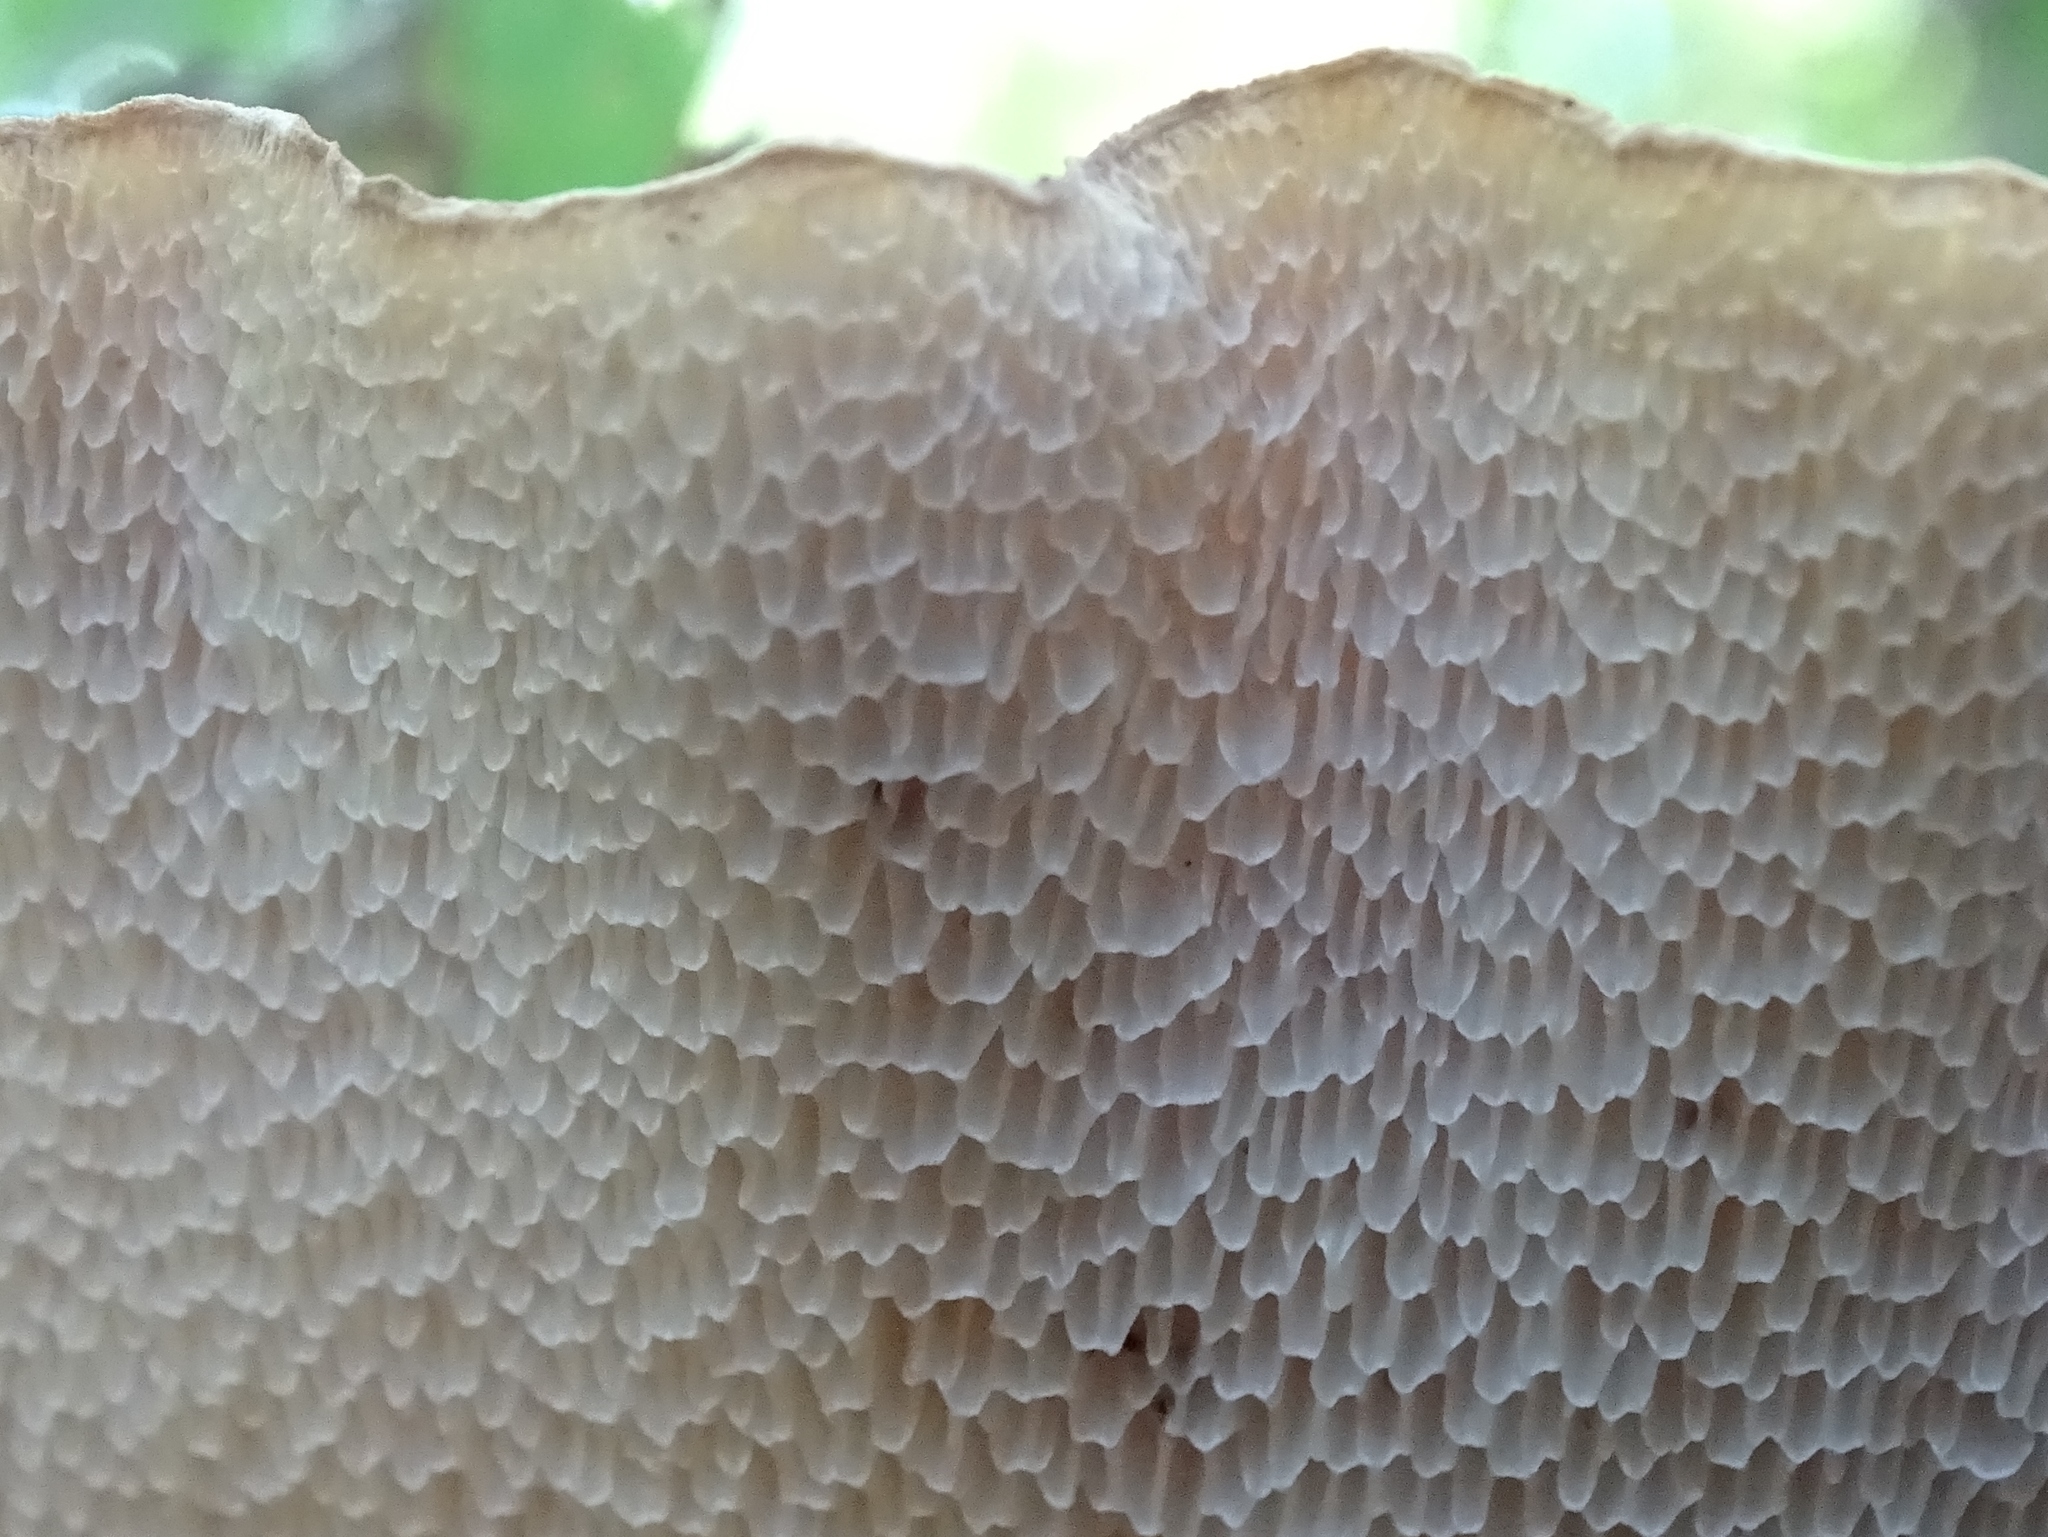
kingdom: Fungi
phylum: Basidiomycota
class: Agaricomycetes
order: Polyporales
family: Polyporaceae
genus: Cerioporus
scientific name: Cerioporus squamosus
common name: Dryad's saddle
